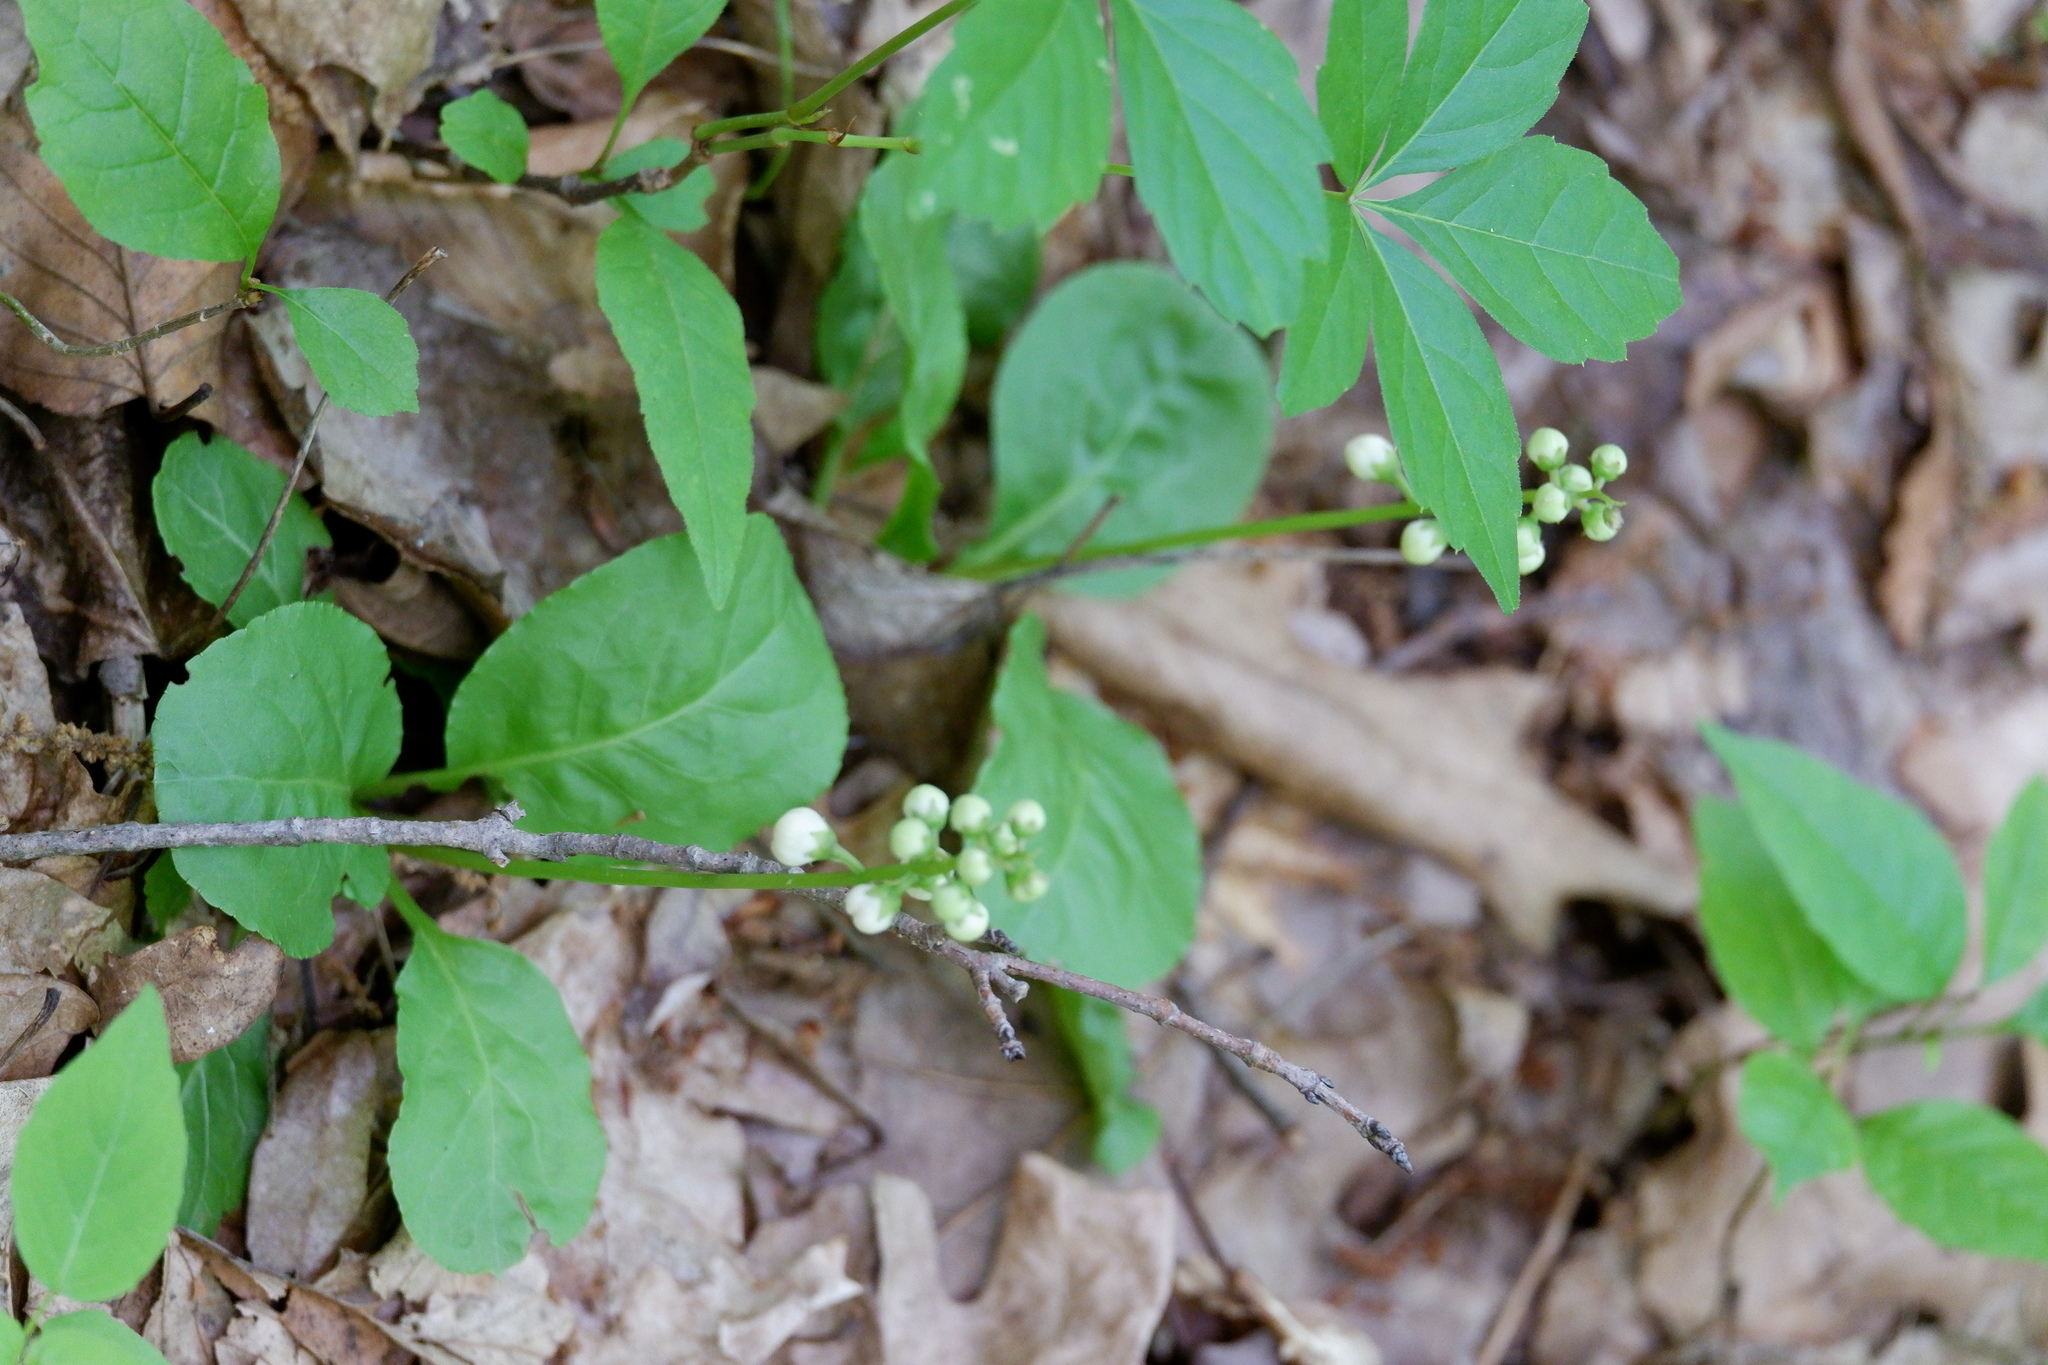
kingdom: Plantae
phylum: Tracheophyta
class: Magnoliopsida
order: Ericales
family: Ericaceae
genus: Pyrola
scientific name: Pyrola elliptica
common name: Shinleaf
